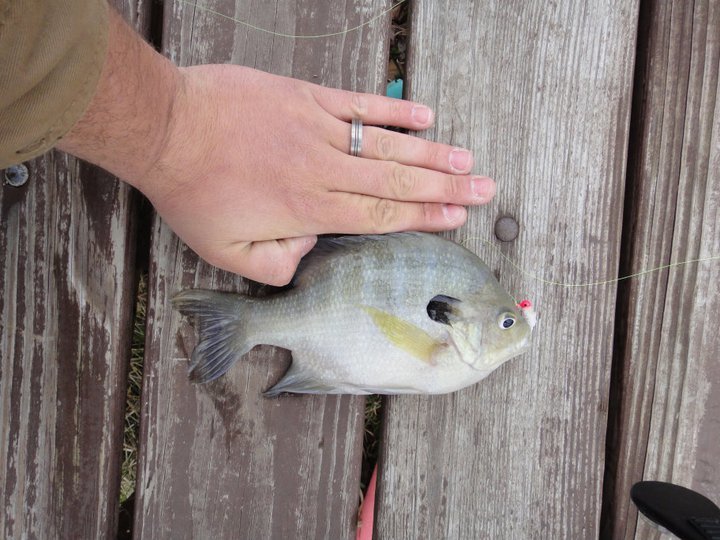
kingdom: Animalia
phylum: Chordata
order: Perciformes
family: Centrarchidae
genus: Lepomis
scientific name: Lepomis macrochirus
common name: Bluegill
